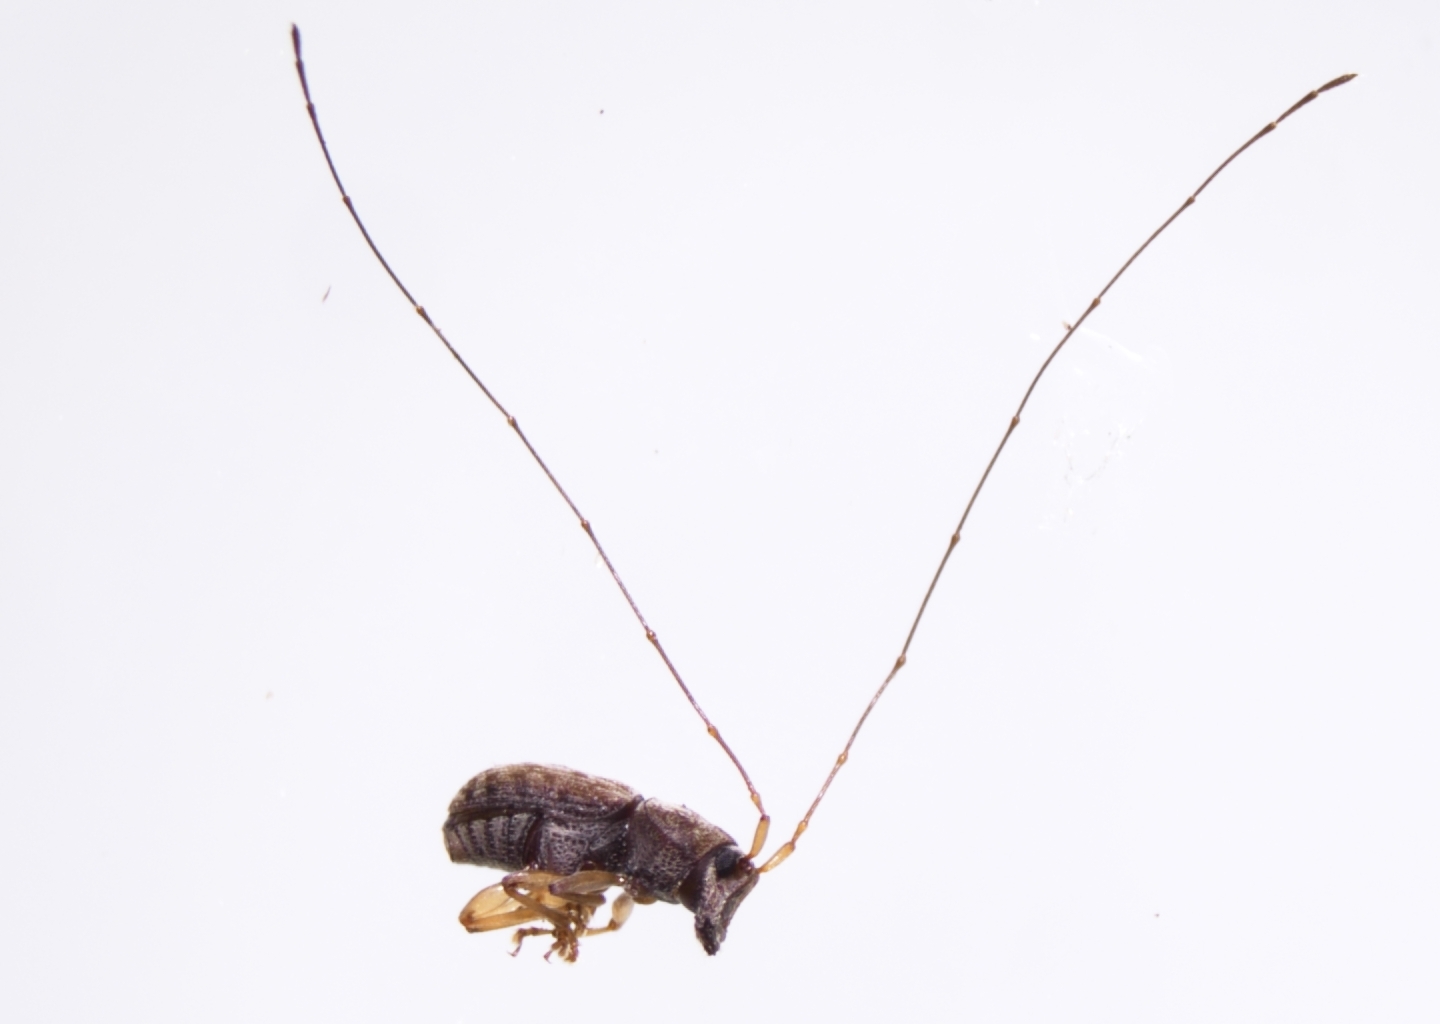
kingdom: Animalia
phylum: Arthropoda
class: Insecta
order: Coleoptera
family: Anthribidae
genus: Dinema
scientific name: Dinema filicornis
